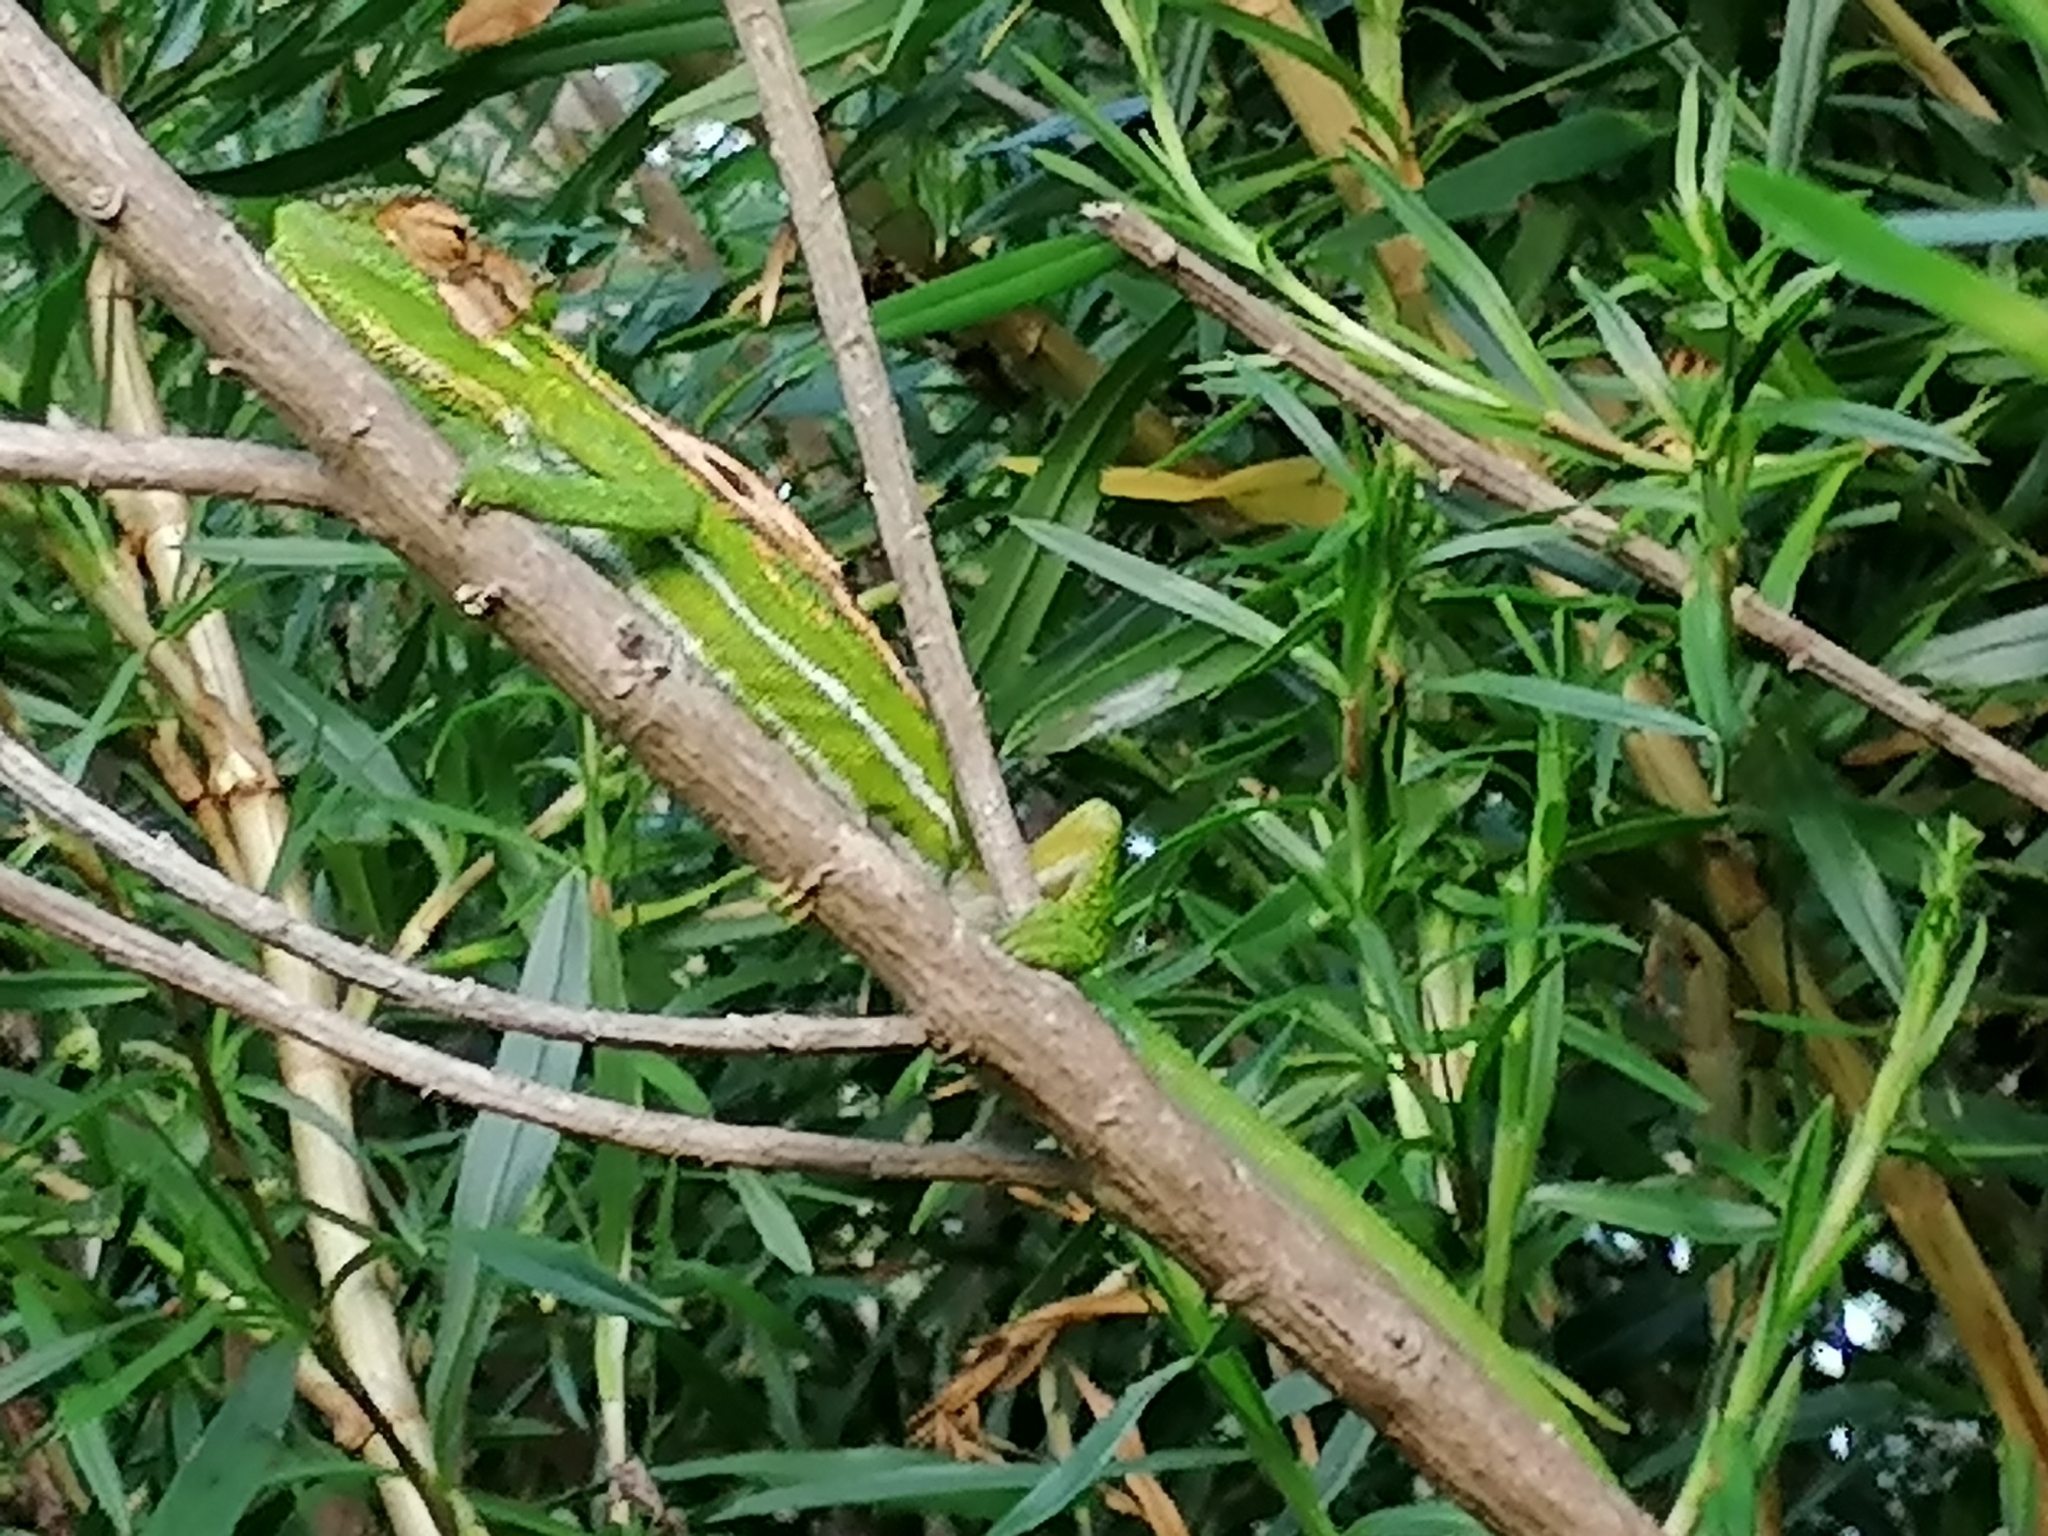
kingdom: Animalia
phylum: Chordata
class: Squamata
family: Chamaeleonidae
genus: Bradypodion
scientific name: Bradypodion pumilum
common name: Cape dwarf chameleon
